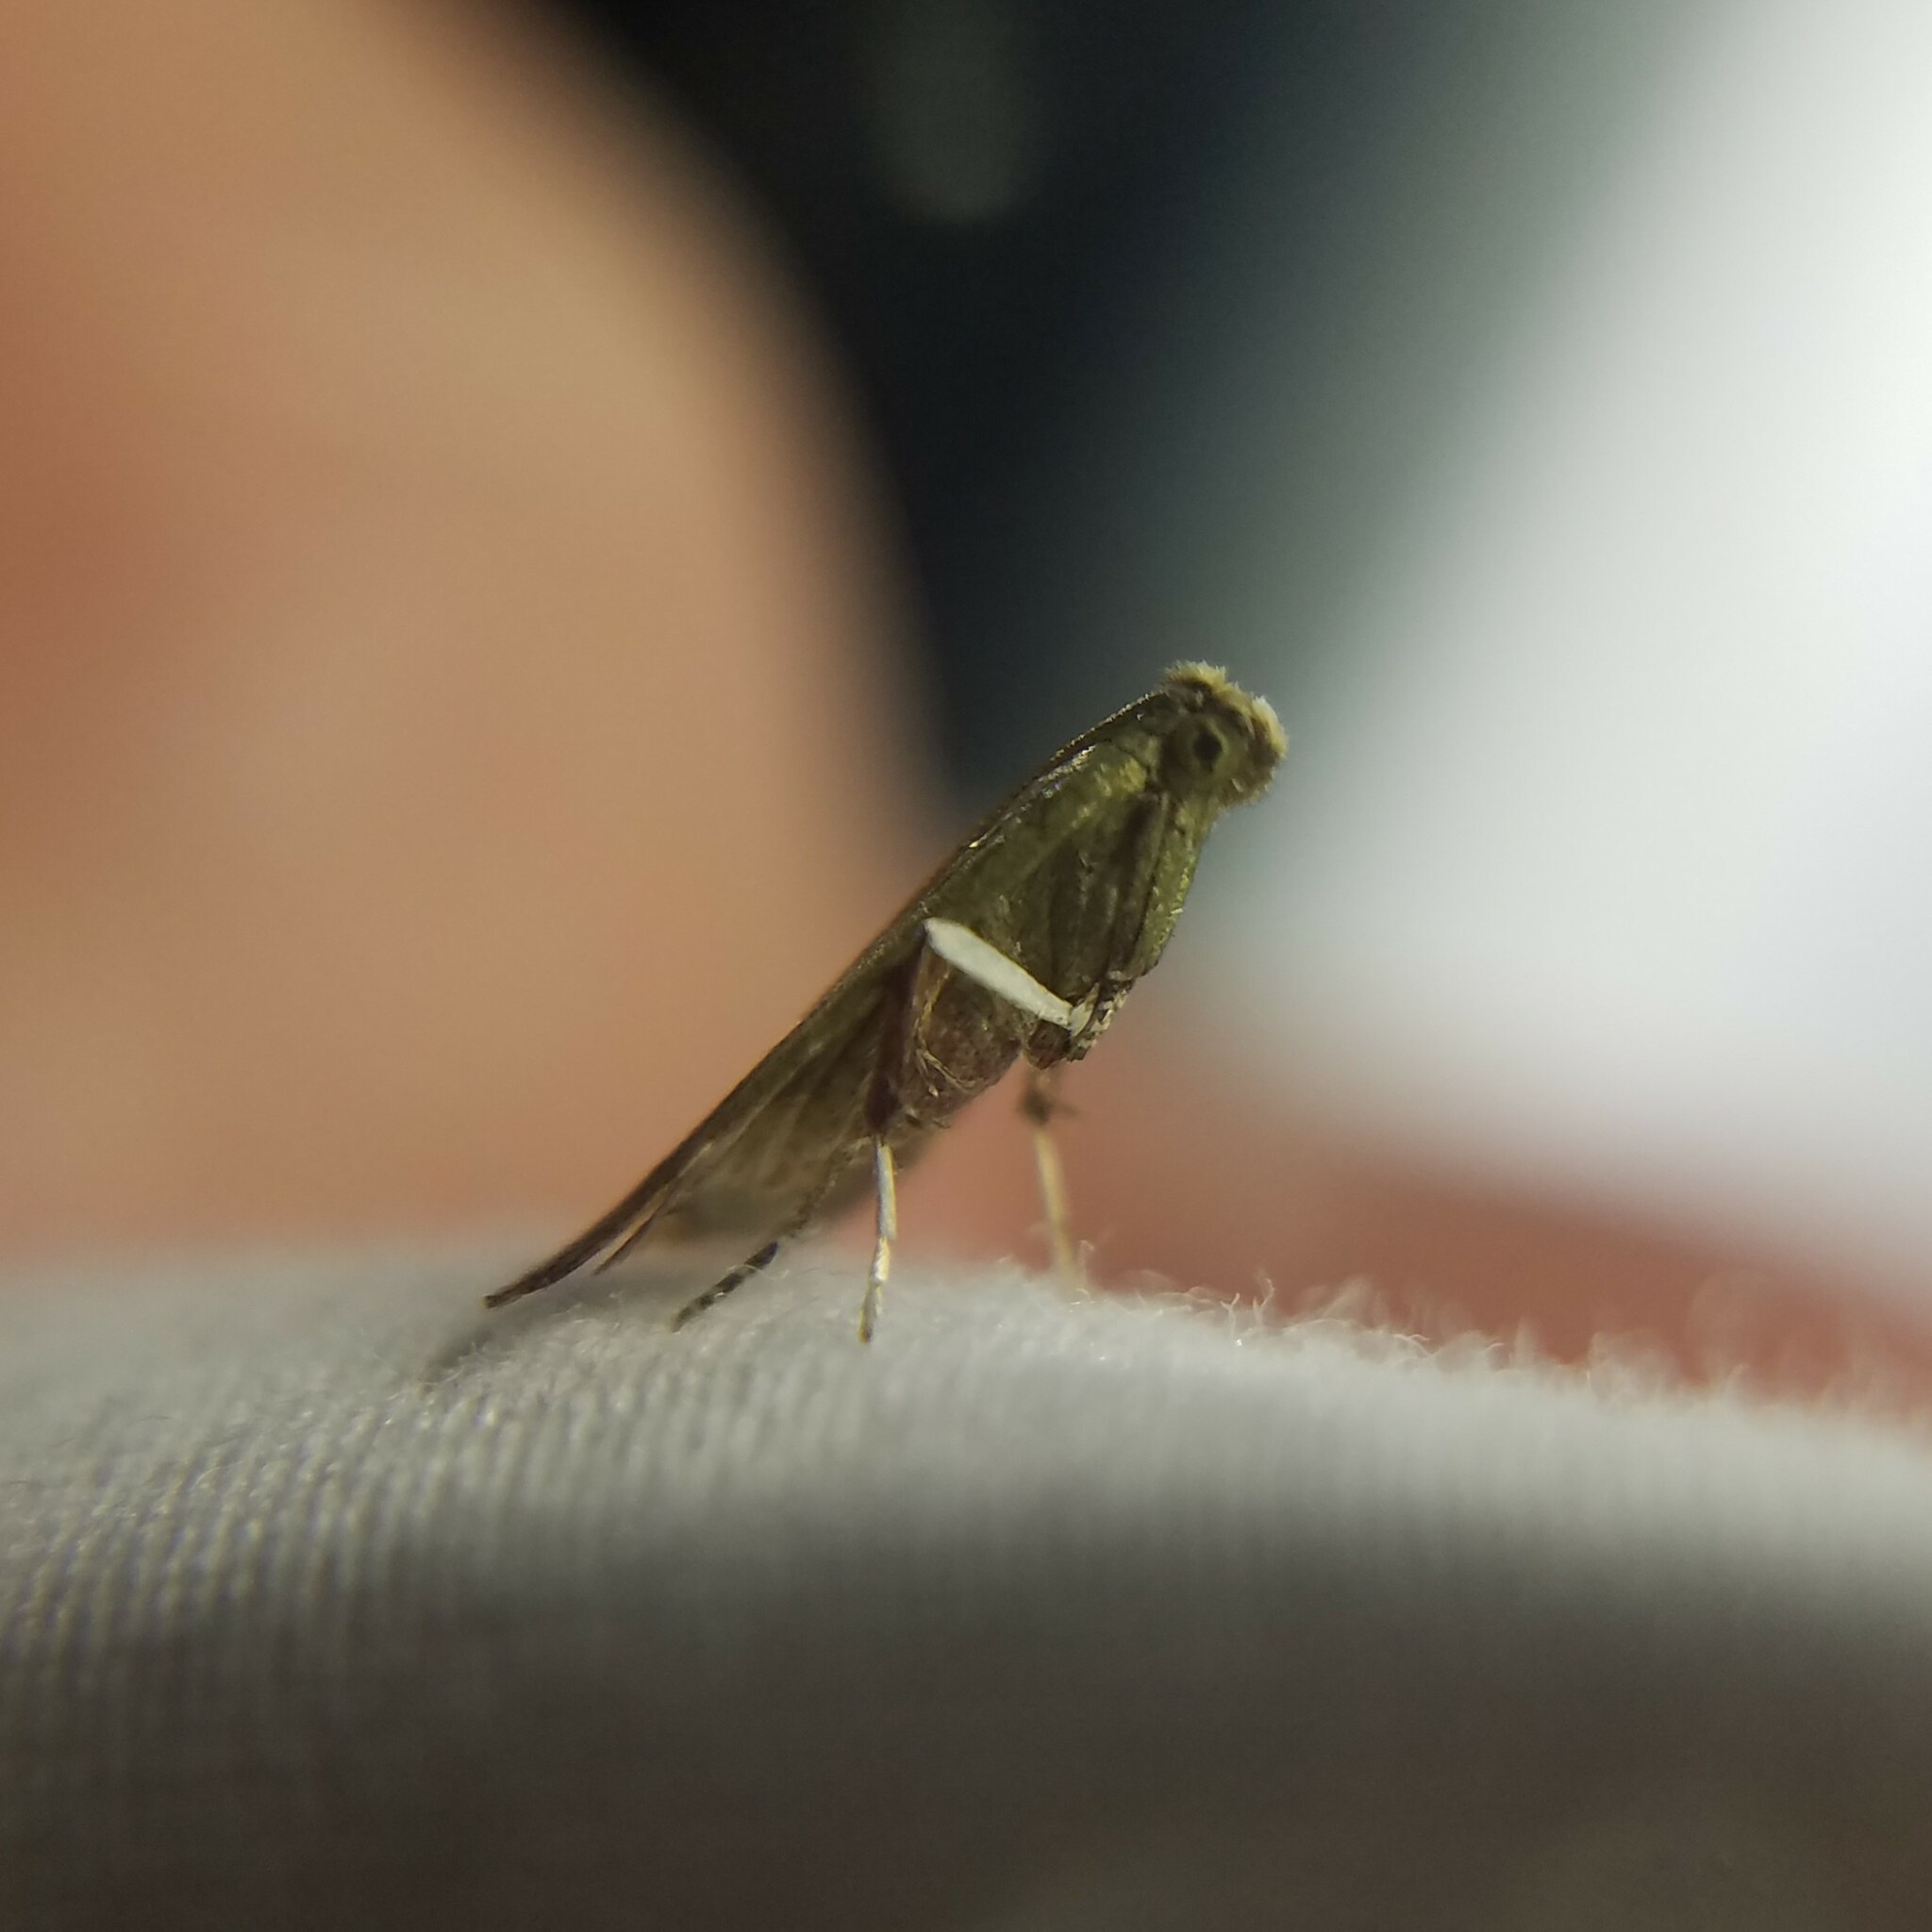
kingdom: Animalia
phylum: Arthropoda
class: Insecta
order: Lepidoptera
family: Pyralidae
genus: Arta
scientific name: Arta olivalis
